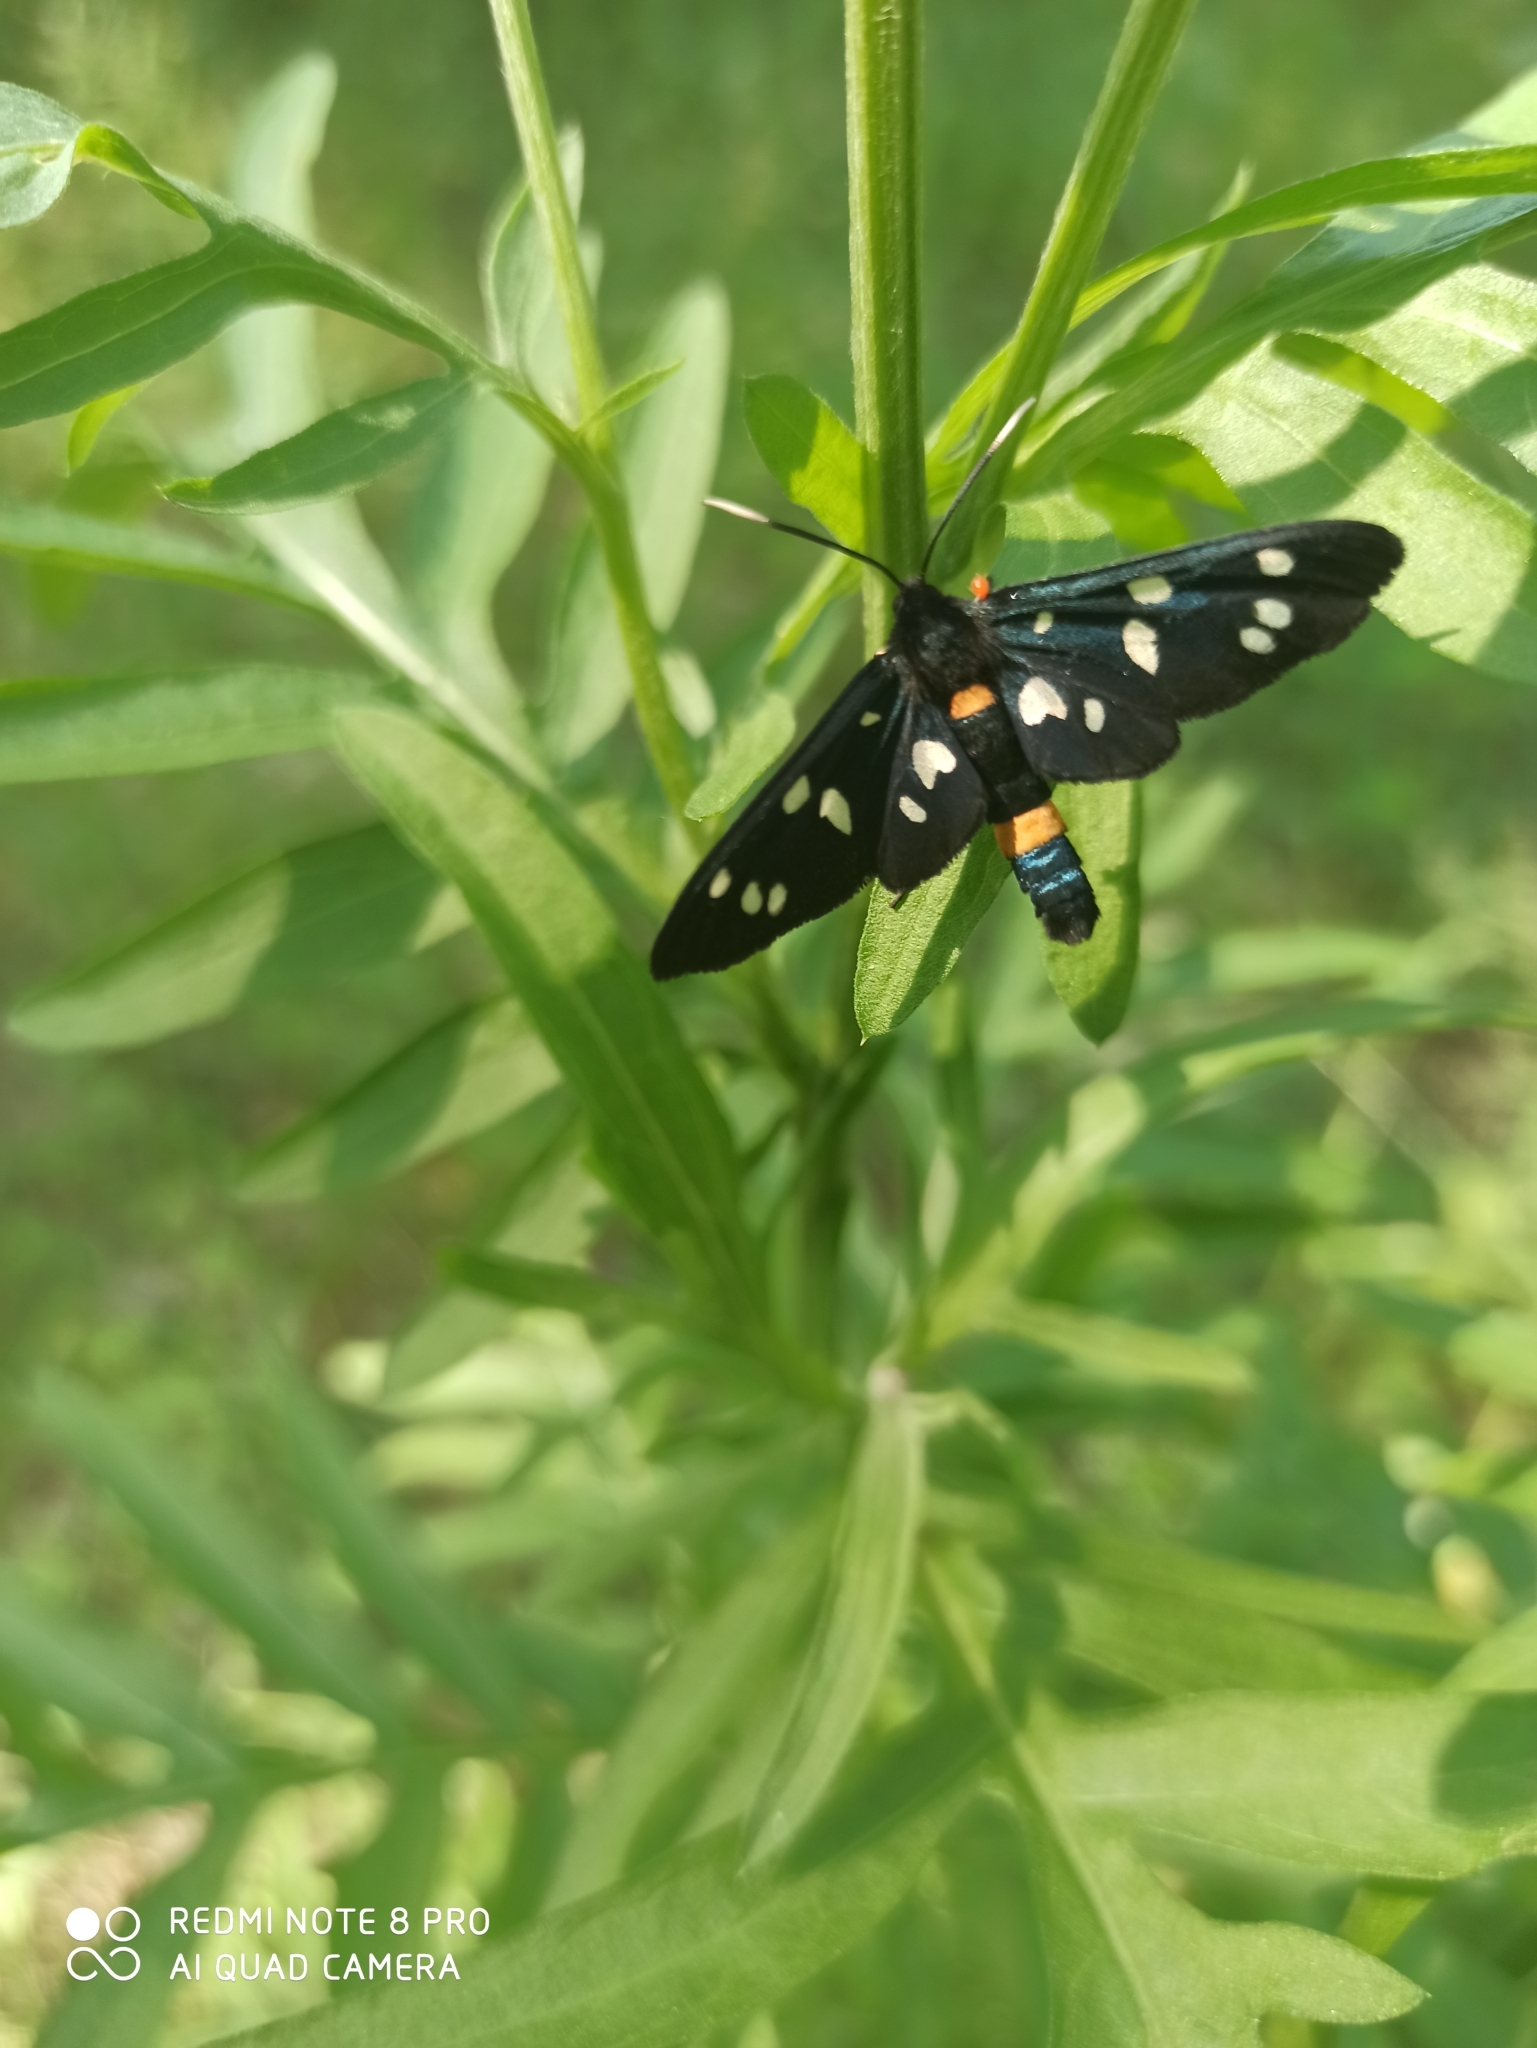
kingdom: Animalia
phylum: Arthropoda
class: Insecta
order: Lepidoptera
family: Erebidae
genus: Amata
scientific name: Amata nigricornis
